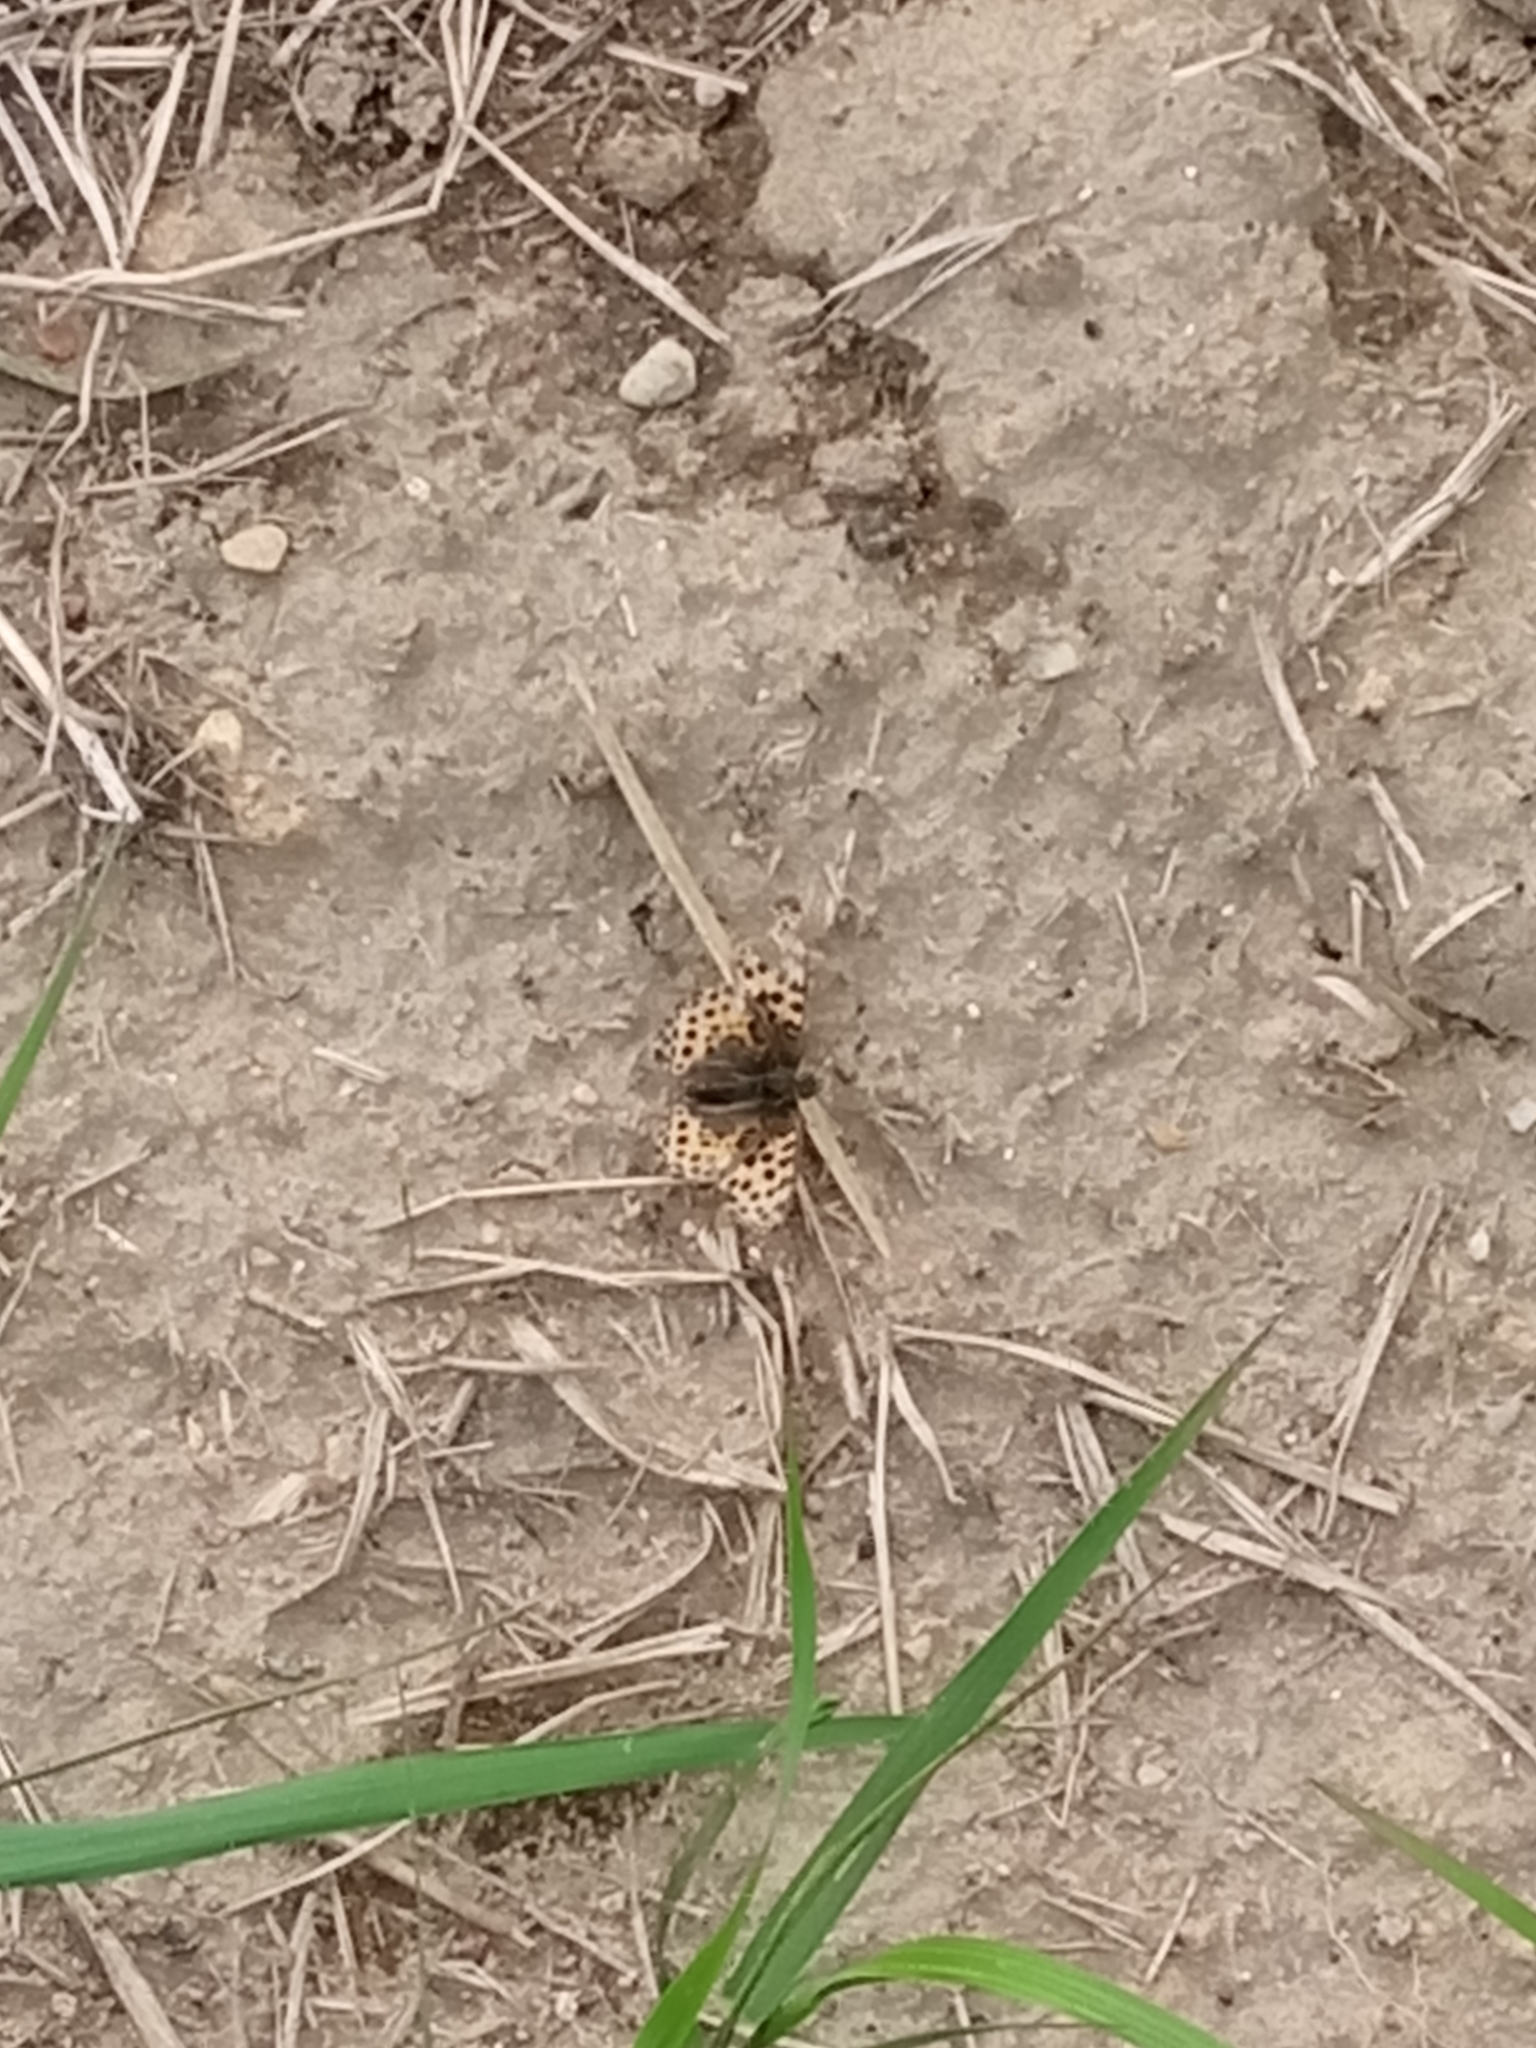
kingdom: Animalia
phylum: Arthropoda
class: Insecta
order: Lepidoptera
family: Nymphalidae
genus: Issoria
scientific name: Issoria lathonia
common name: Queen of spain fritillary
